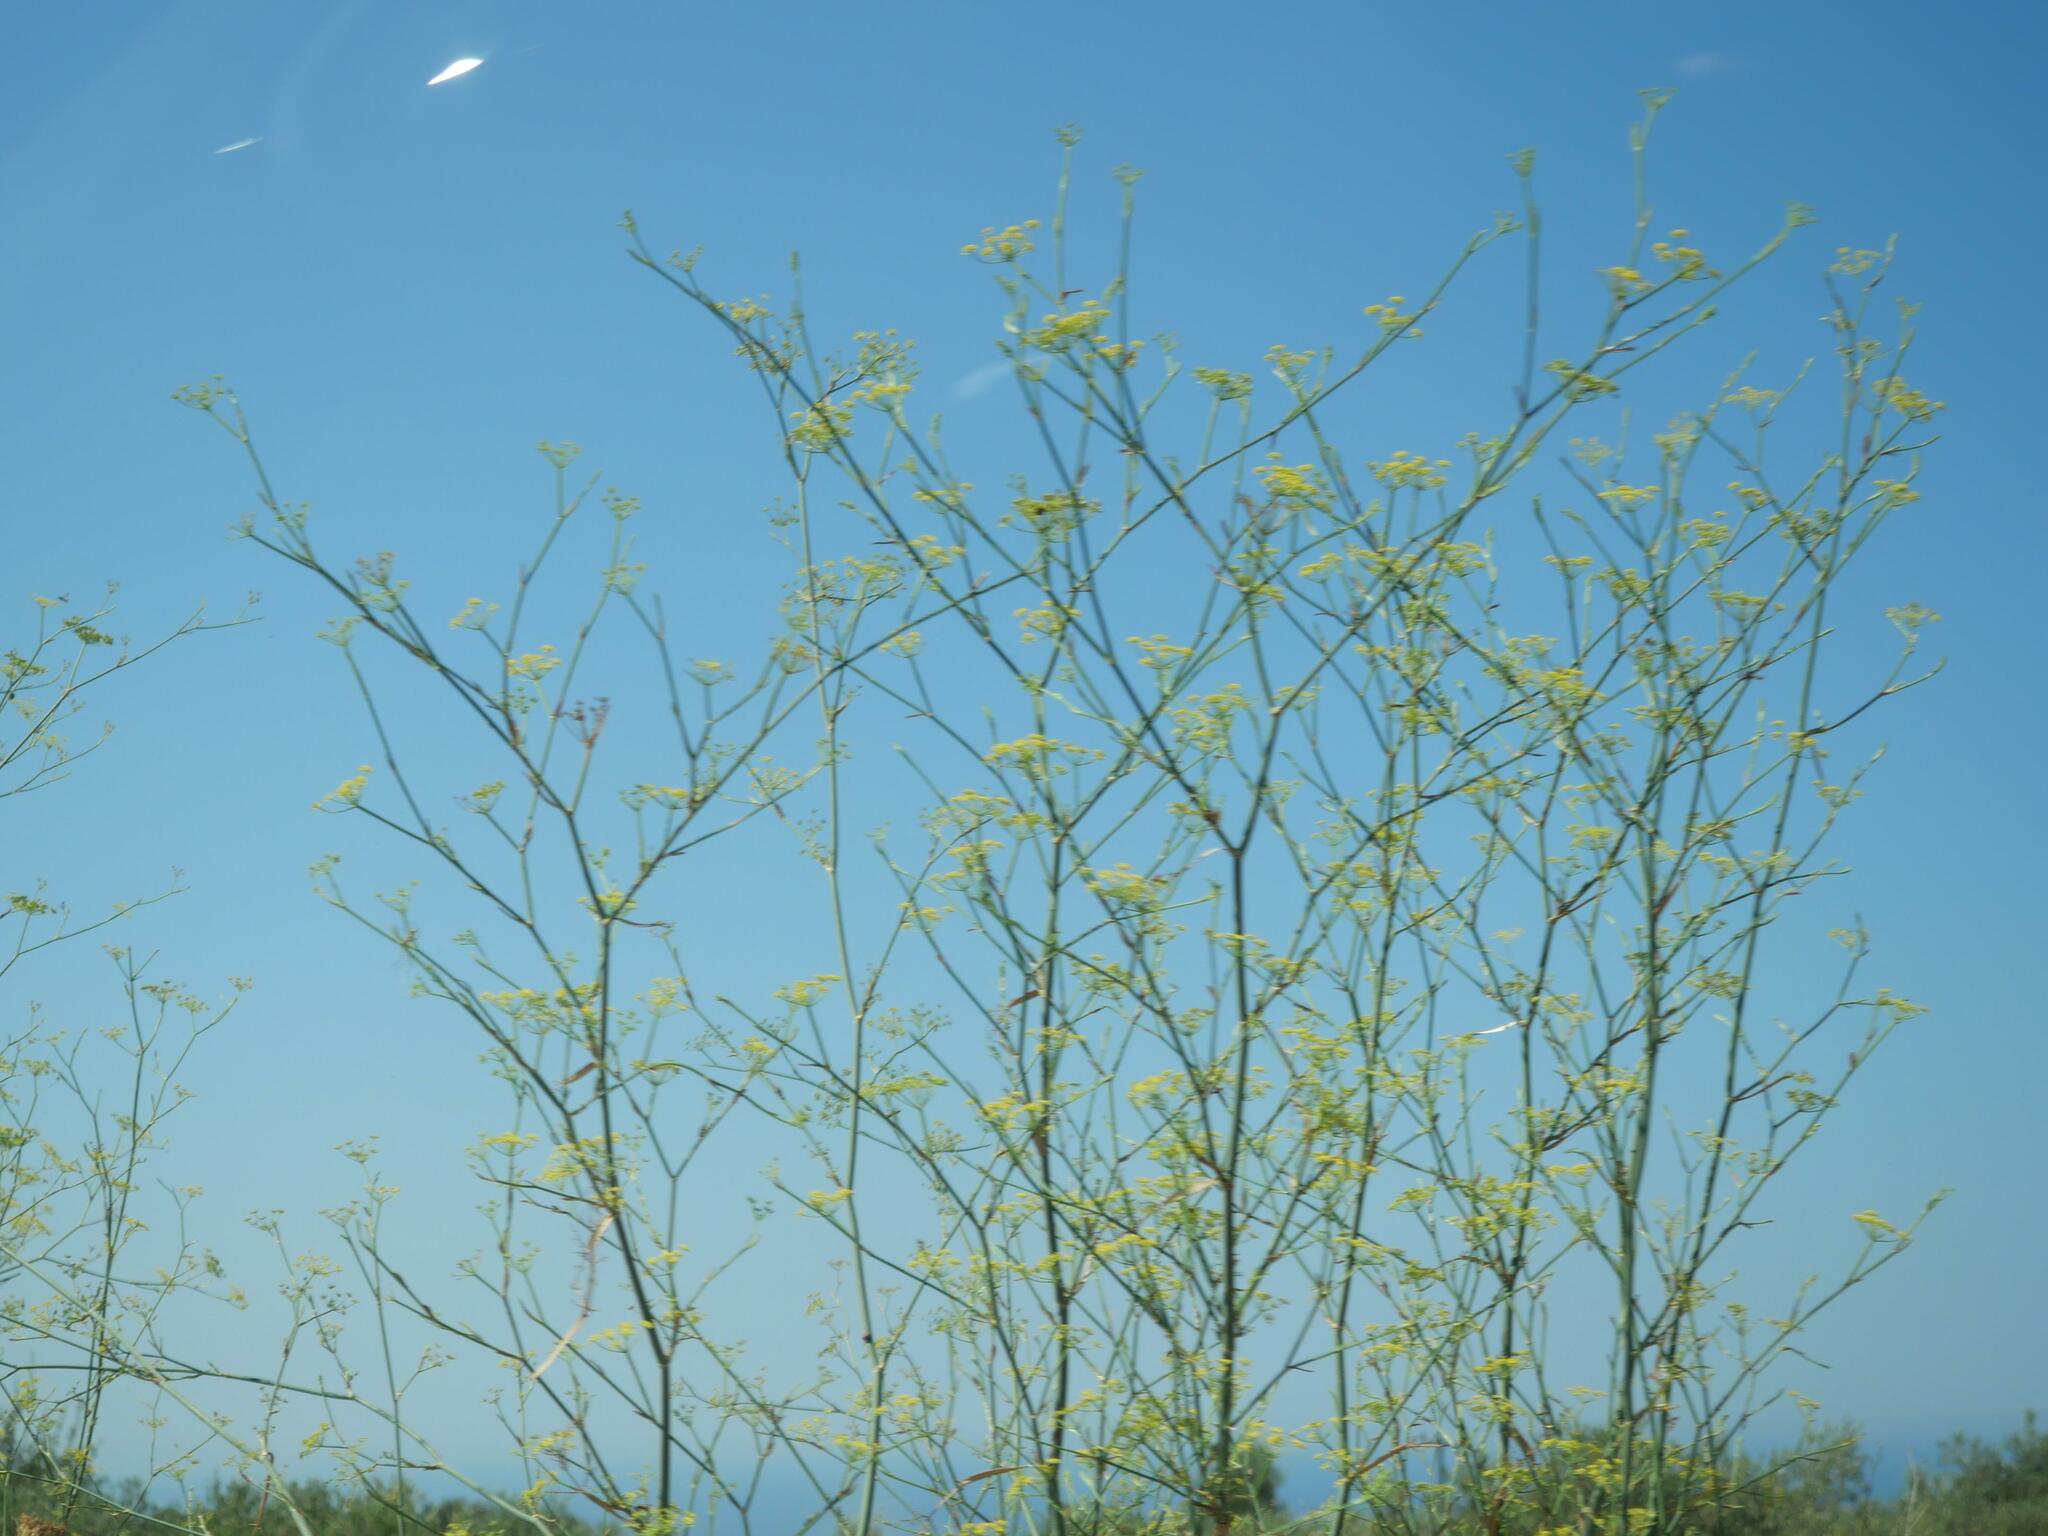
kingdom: Plantae
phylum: Tracheophyta
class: Magnoliopsida
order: Apiales
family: Apiaceae
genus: Foeniculum
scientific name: Foeniculum vulgare
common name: Fennel
